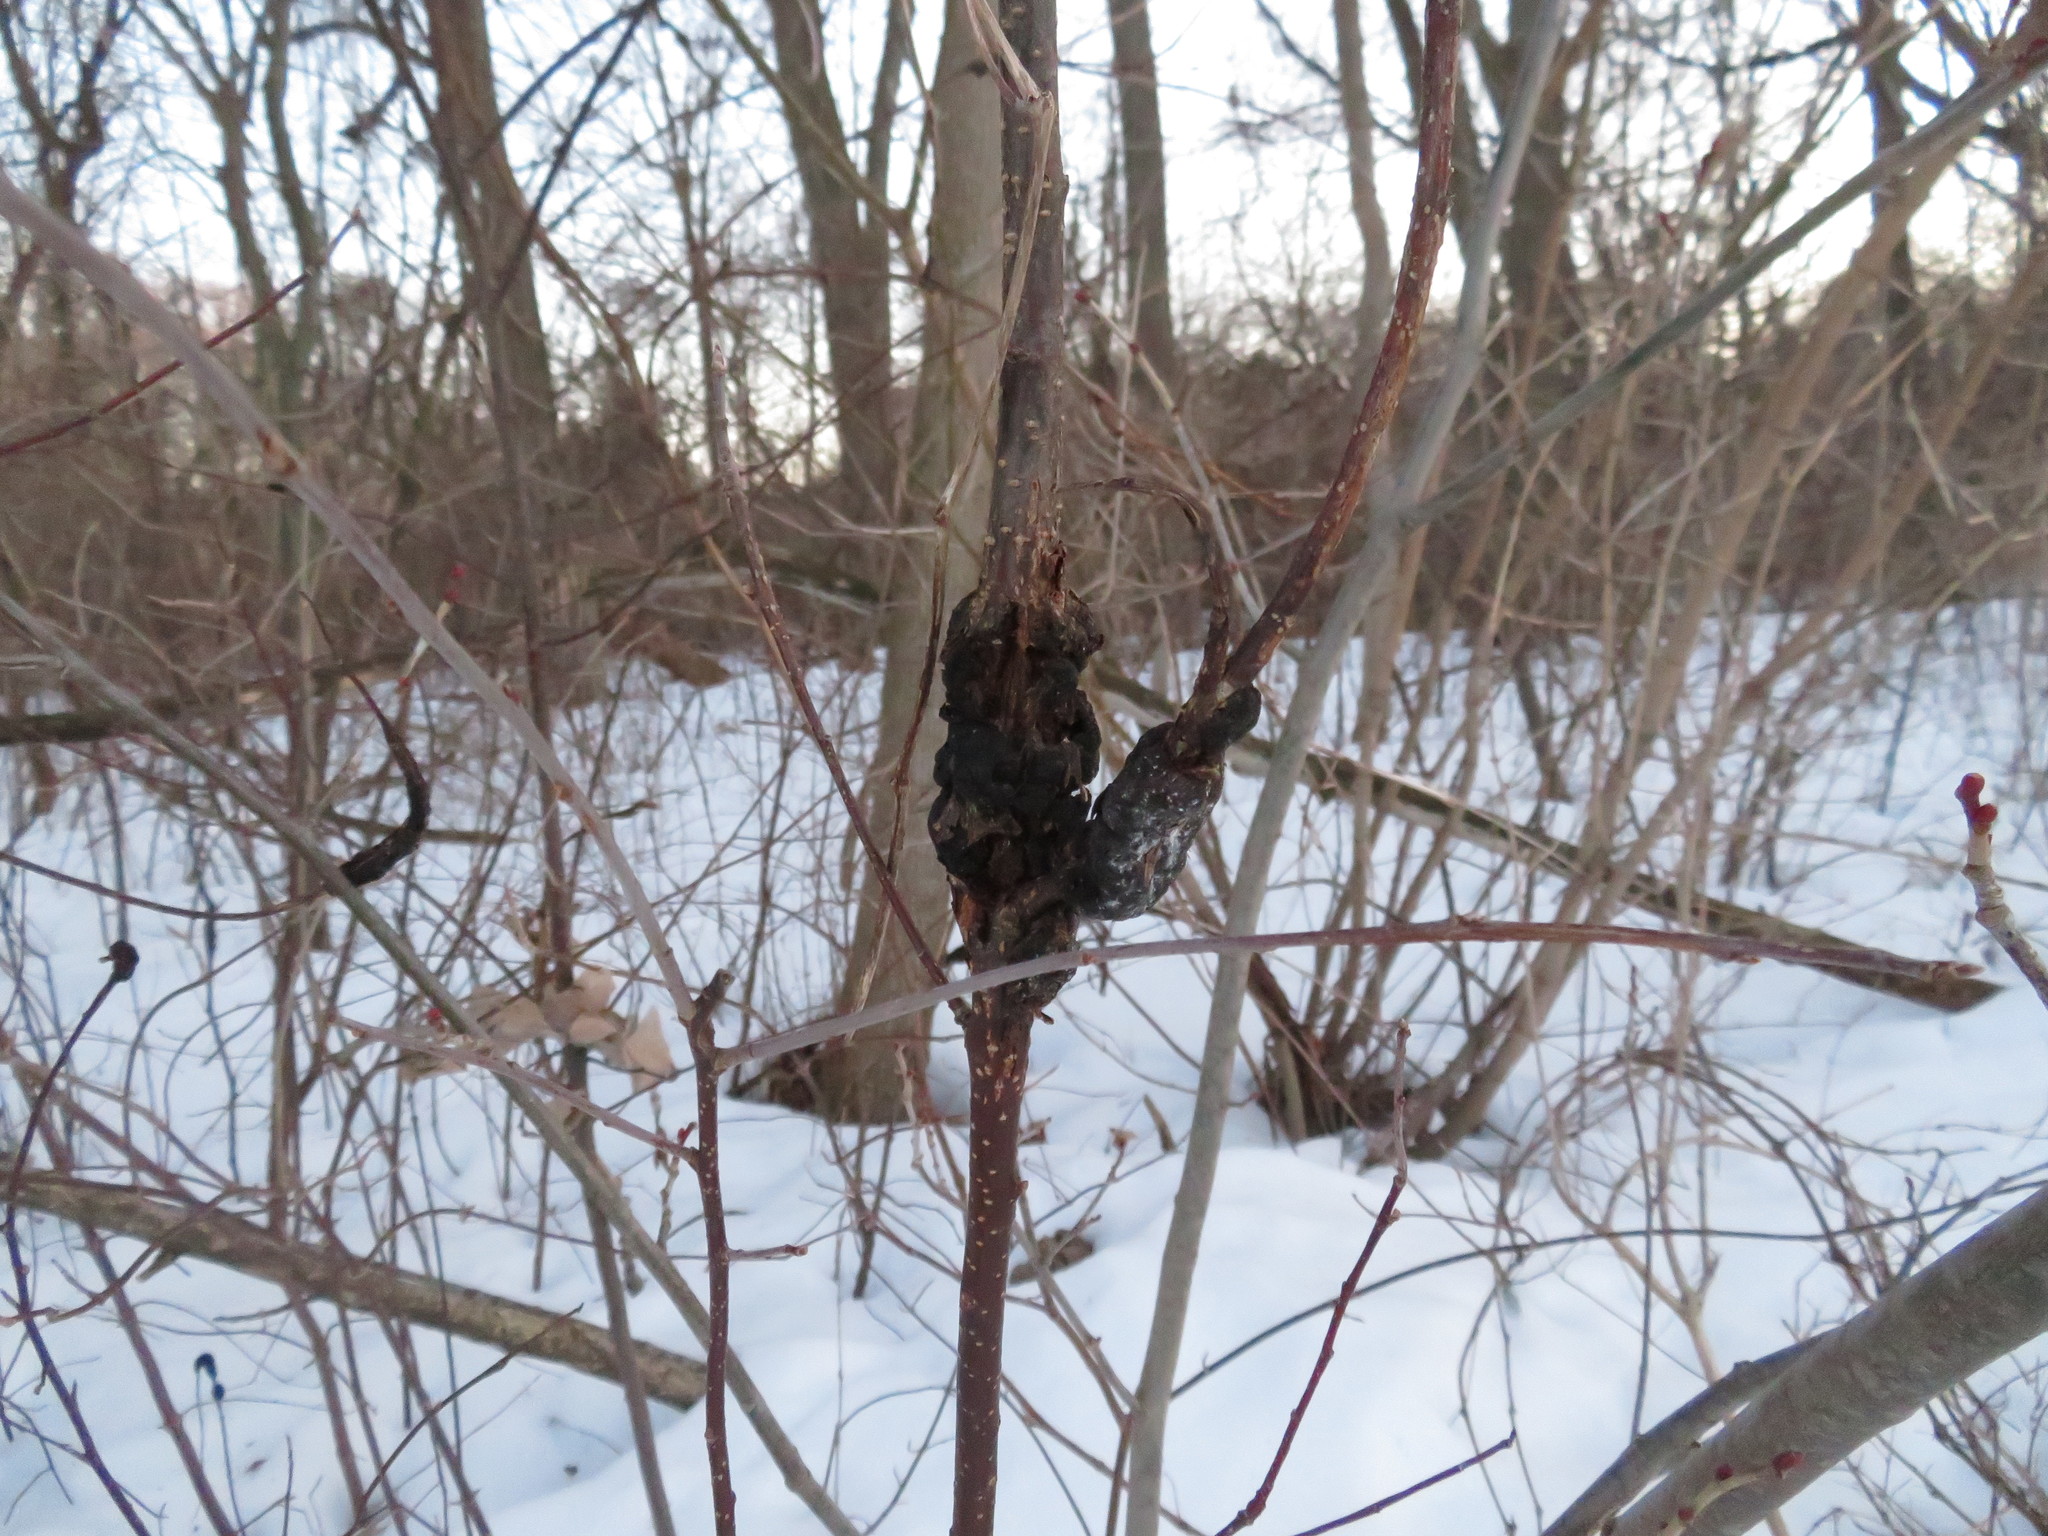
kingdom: Fungi
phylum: Ascomycota
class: Dothideomycetes
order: Venturiales
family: Venturiaceae
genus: Apiosporina
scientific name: Apiosporina morbosa
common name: Black knot
